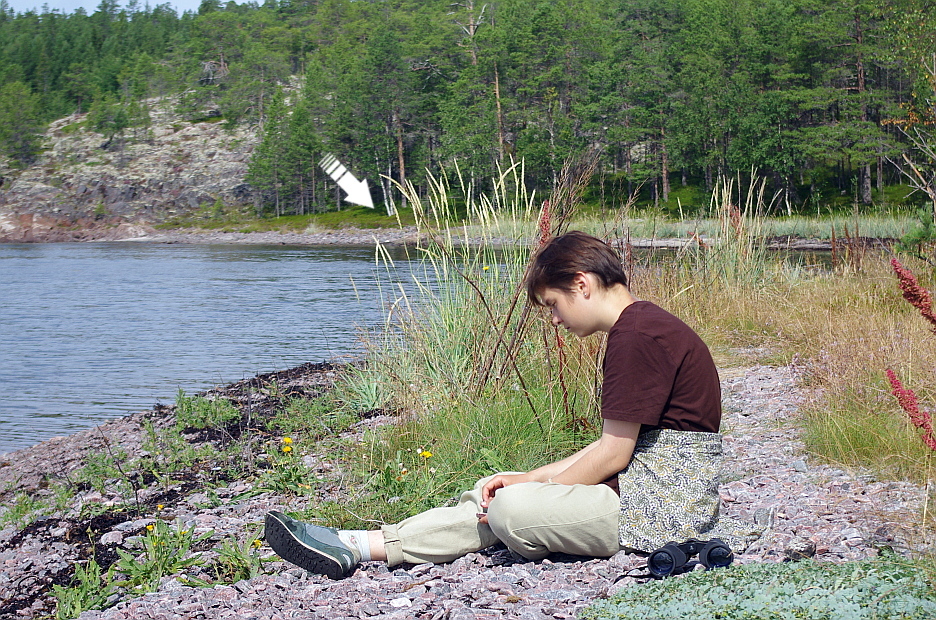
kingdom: Plantae
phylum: Tracheophyta
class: Liliopsida
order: Poales
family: Poaceae
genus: Leymus
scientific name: Leymus arenarius
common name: Lyme-grass
